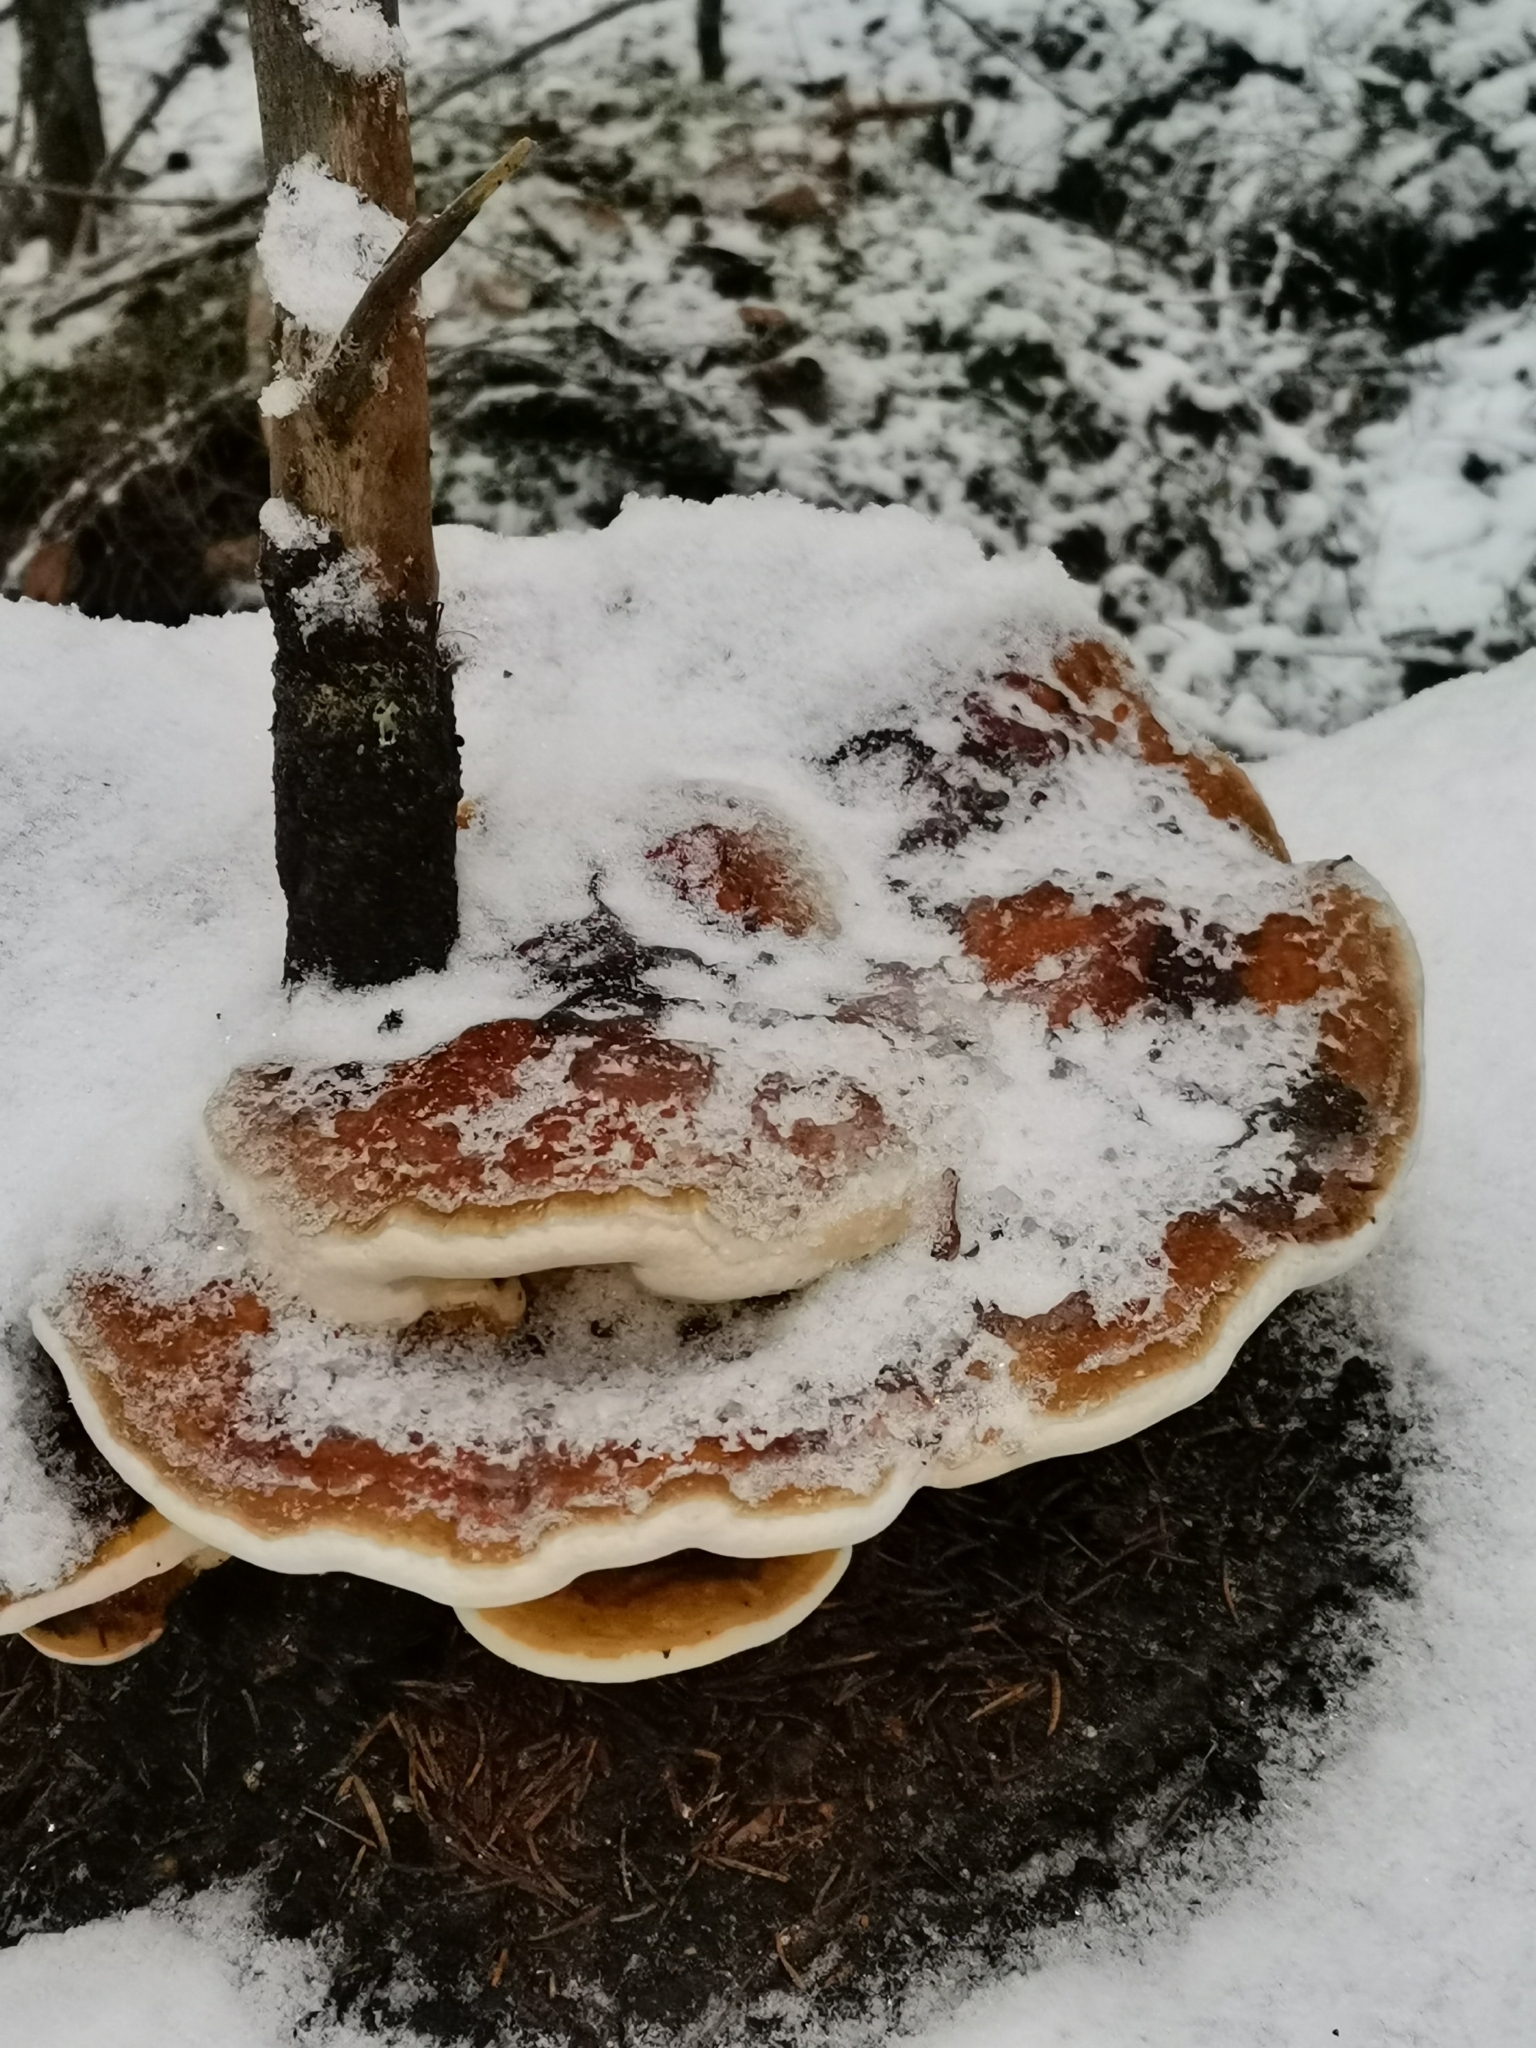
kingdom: Fungi
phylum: Basidiomycota
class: Agaricomycetes
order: Polyporales
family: Fomitopsidaceae
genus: Fomitopsis
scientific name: Fomitopsis pinicola
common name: Red-belted bracket
